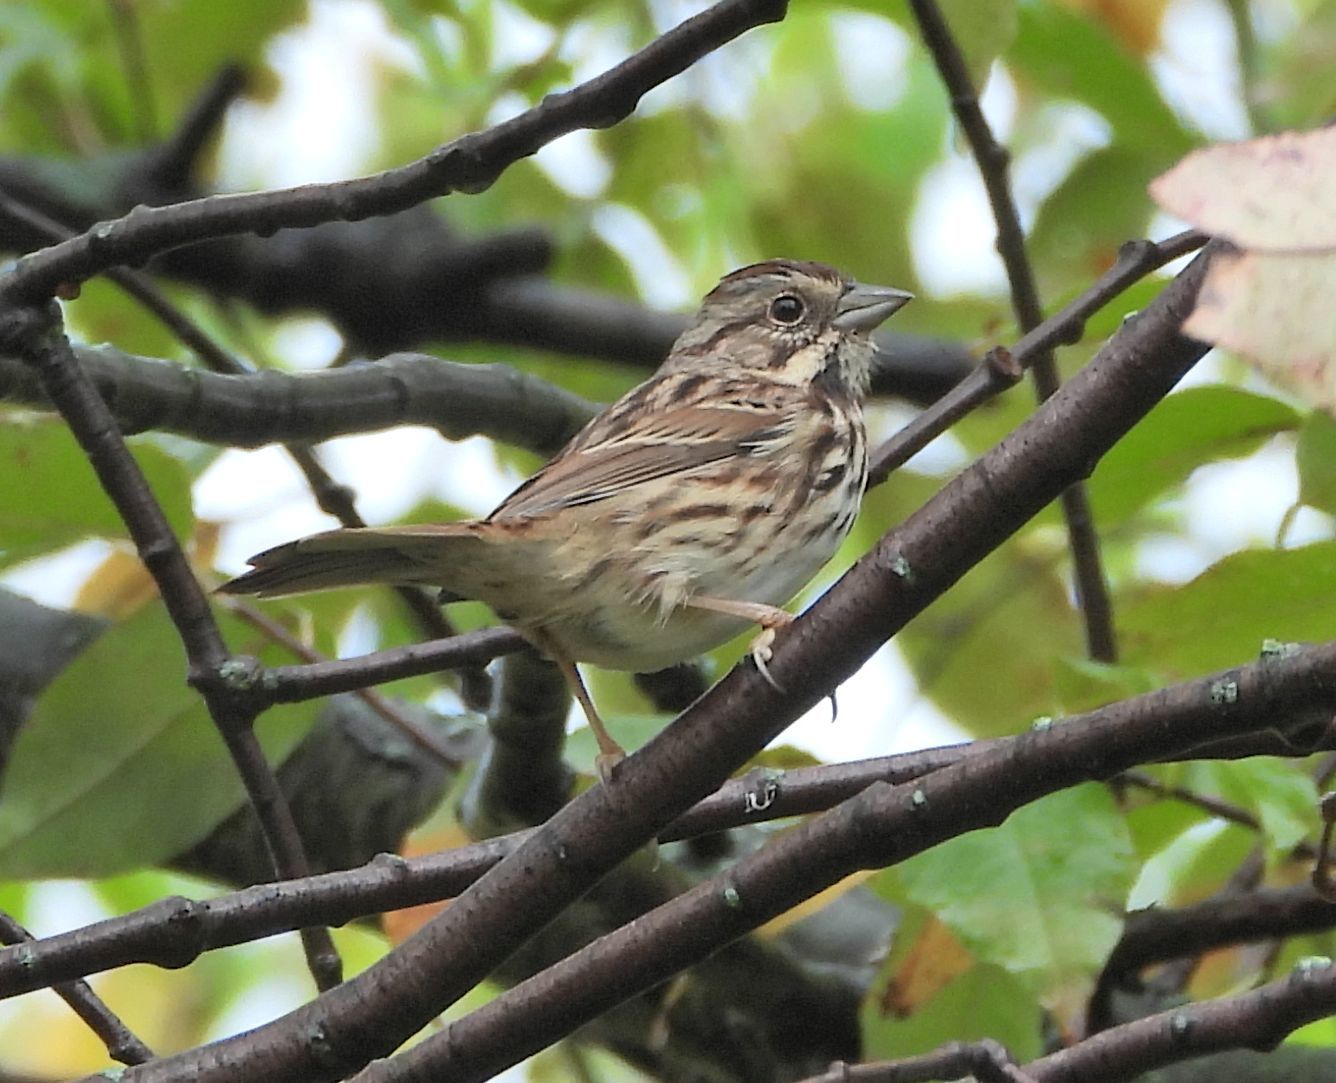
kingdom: Animalia
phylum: Chordata
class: Aves
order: Passeriformes
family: Passerellidae
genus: Melospiza
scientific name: Melospiza melodia
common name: Song sparrow
